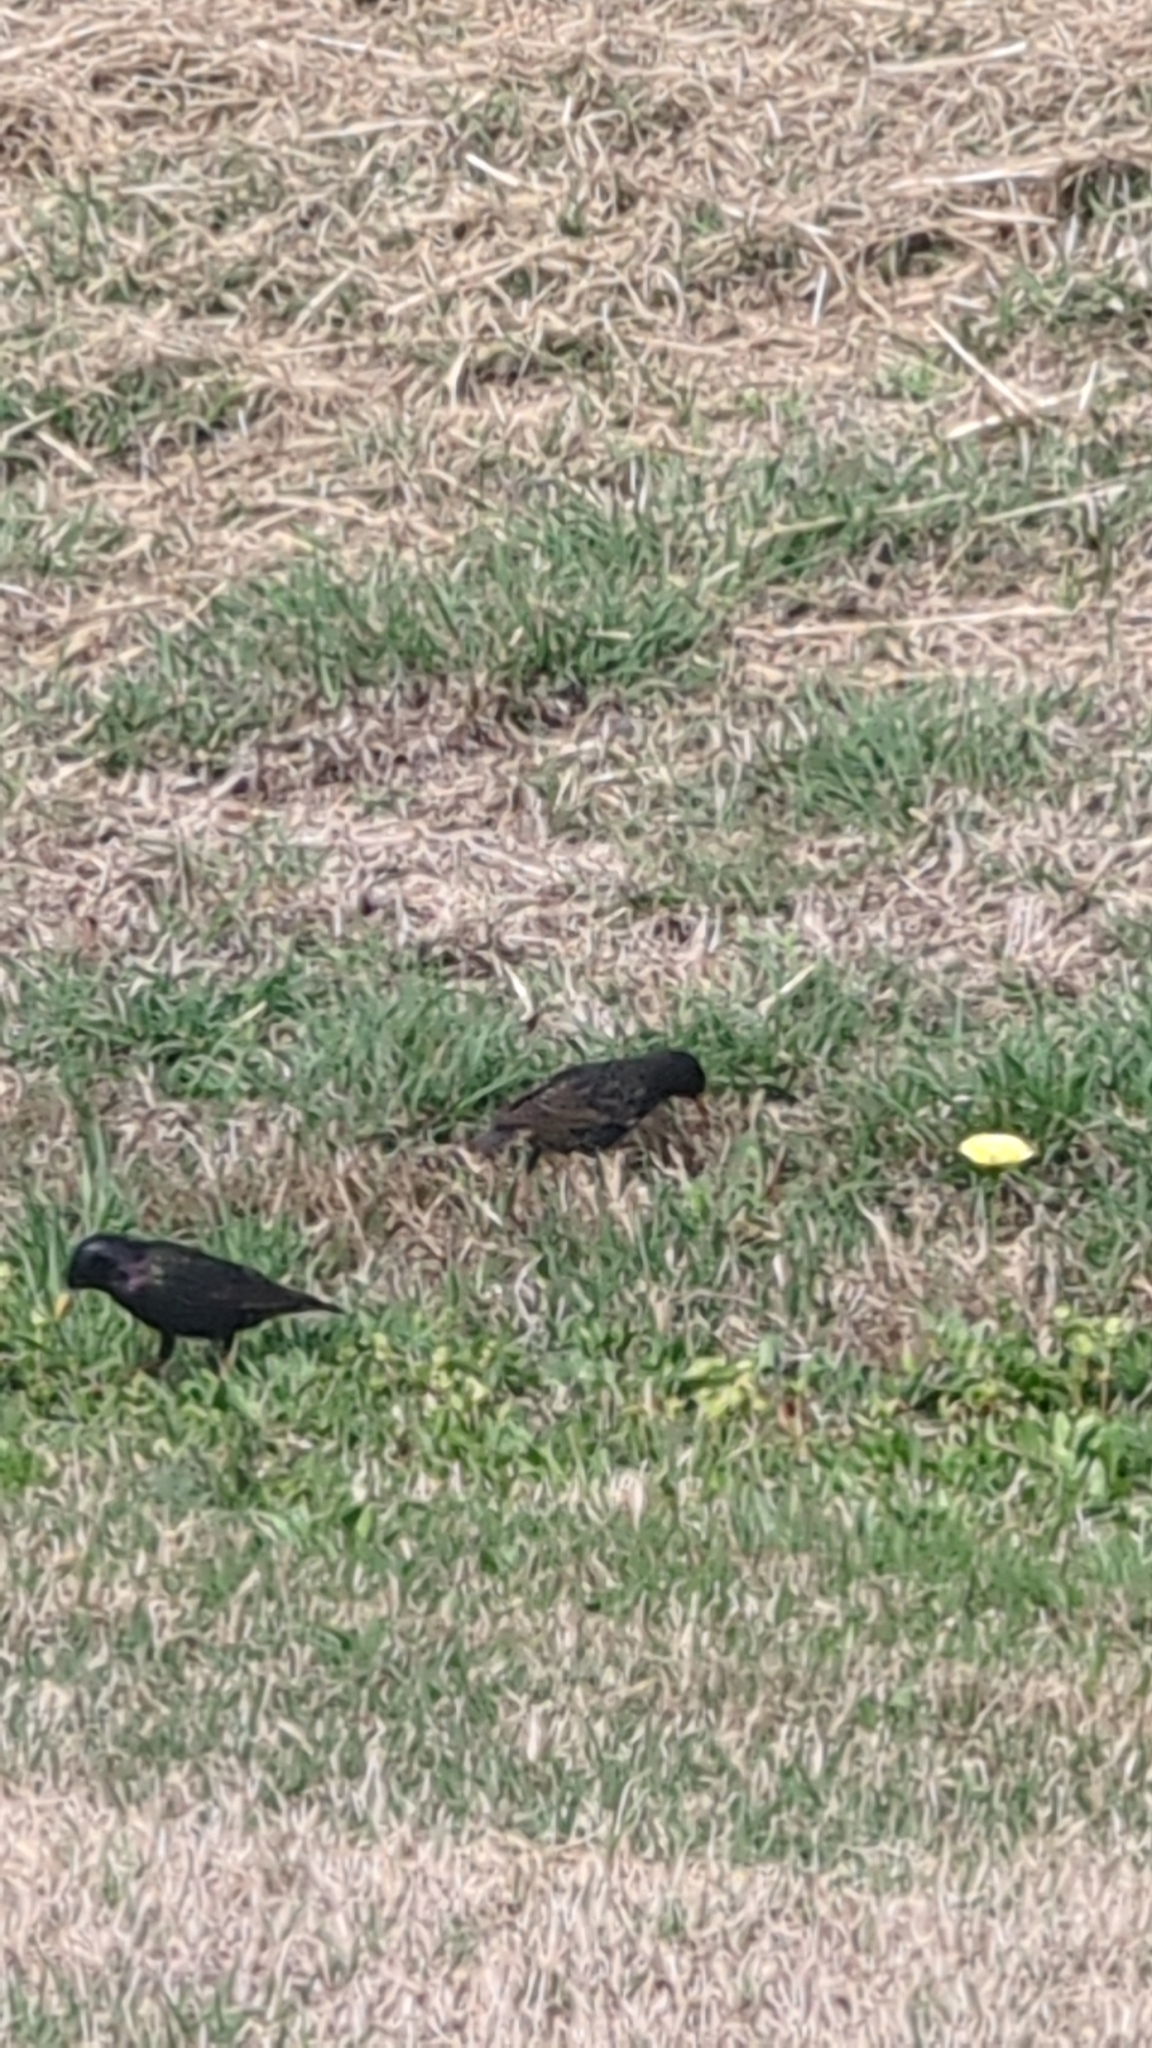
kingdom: Animalia
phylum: Chordata
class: Aves
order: Passeriformes
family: Sturnidae
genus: Sturnus
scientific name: Sturnus vulgaris
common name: Common starling
